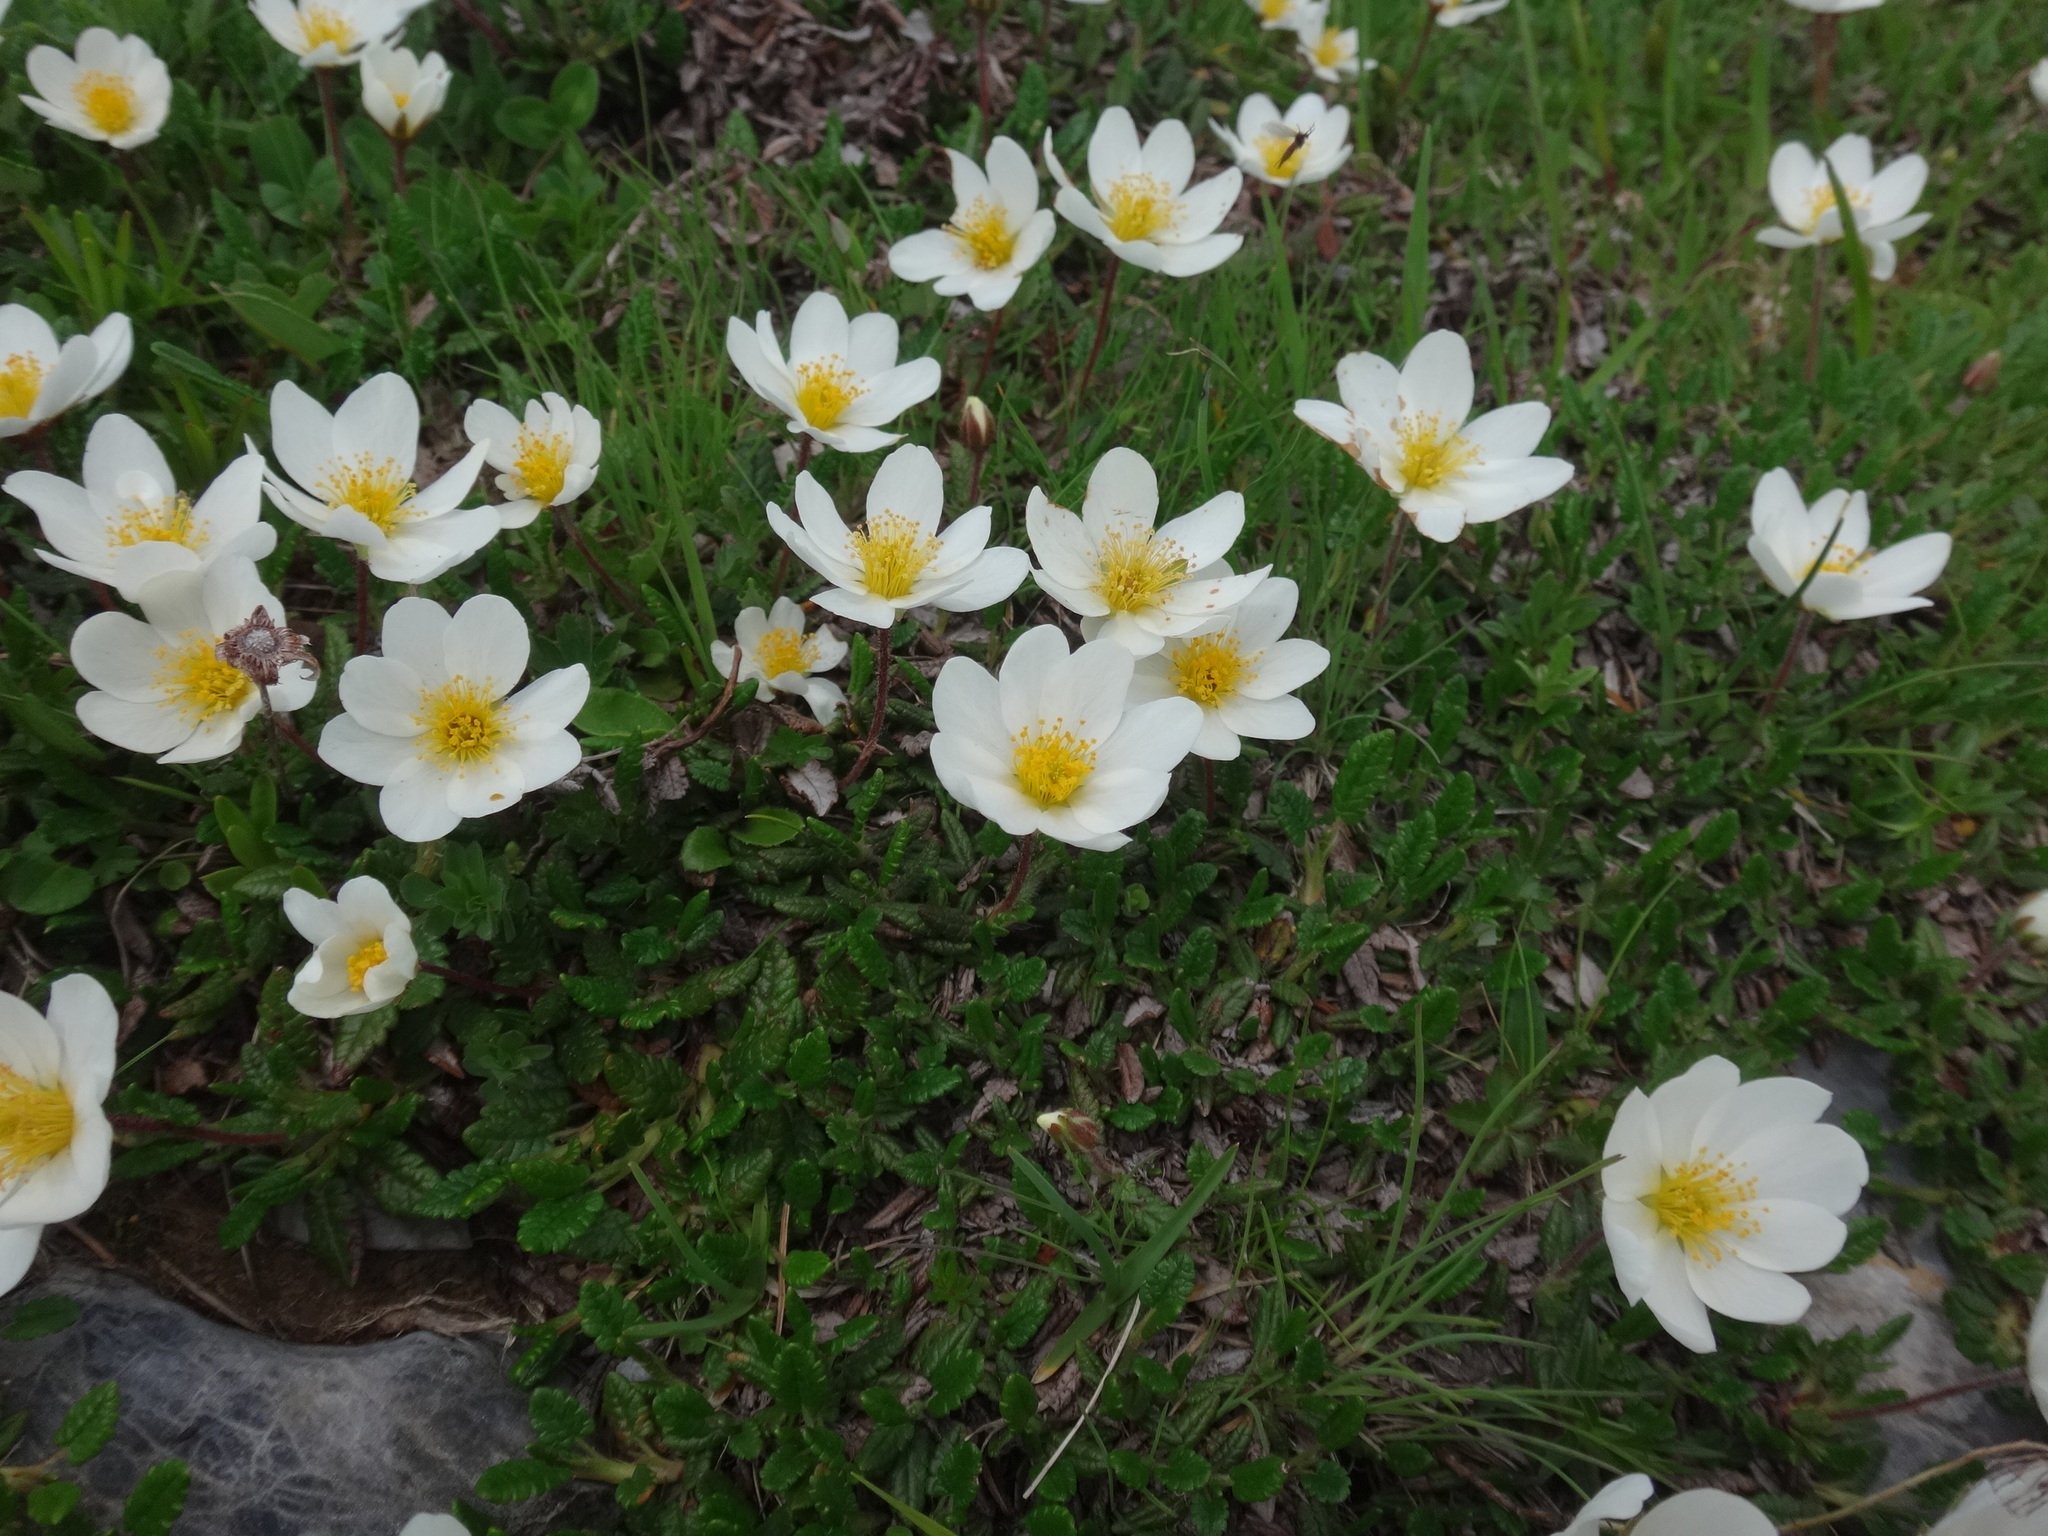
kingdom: Plantae
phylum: Tracheophyta
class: Magnoliopsida
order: Rosales
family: Rosaceae
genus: Dryas
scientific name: Dryas octopetala
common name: Eight-petal mountain-avens
